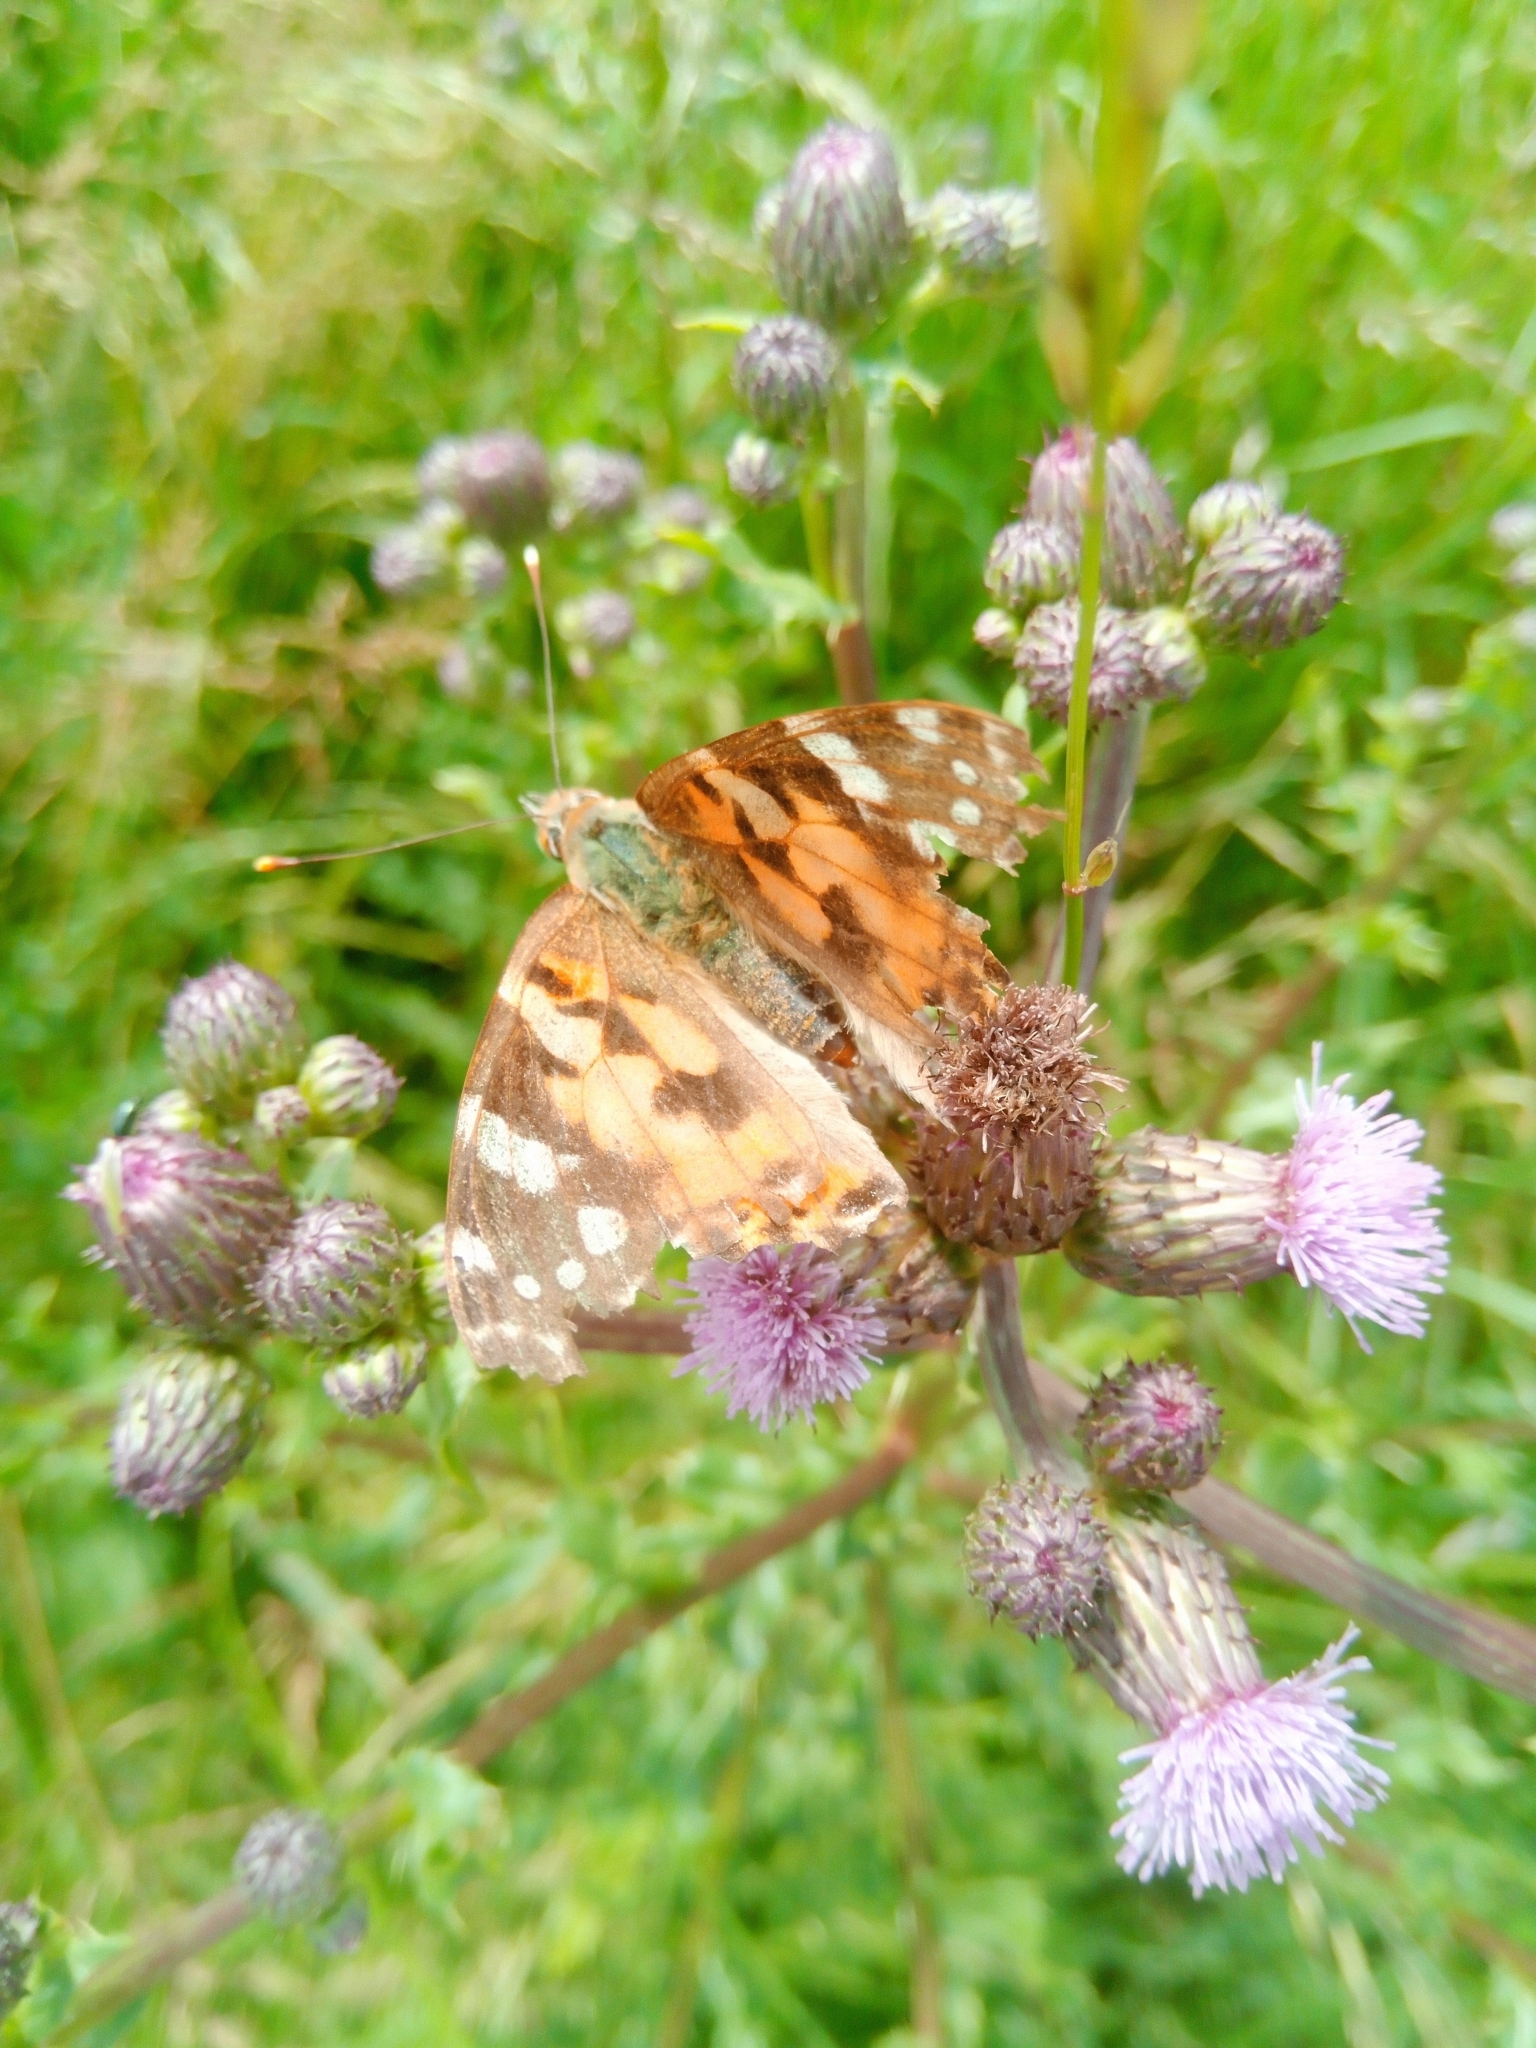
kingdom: Animalia
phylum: Arthropoda
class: Insecta
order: Lepidoptera
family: Nymphalidae
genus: Vanessa
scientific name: Vanessa cardui
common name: Painted lady
